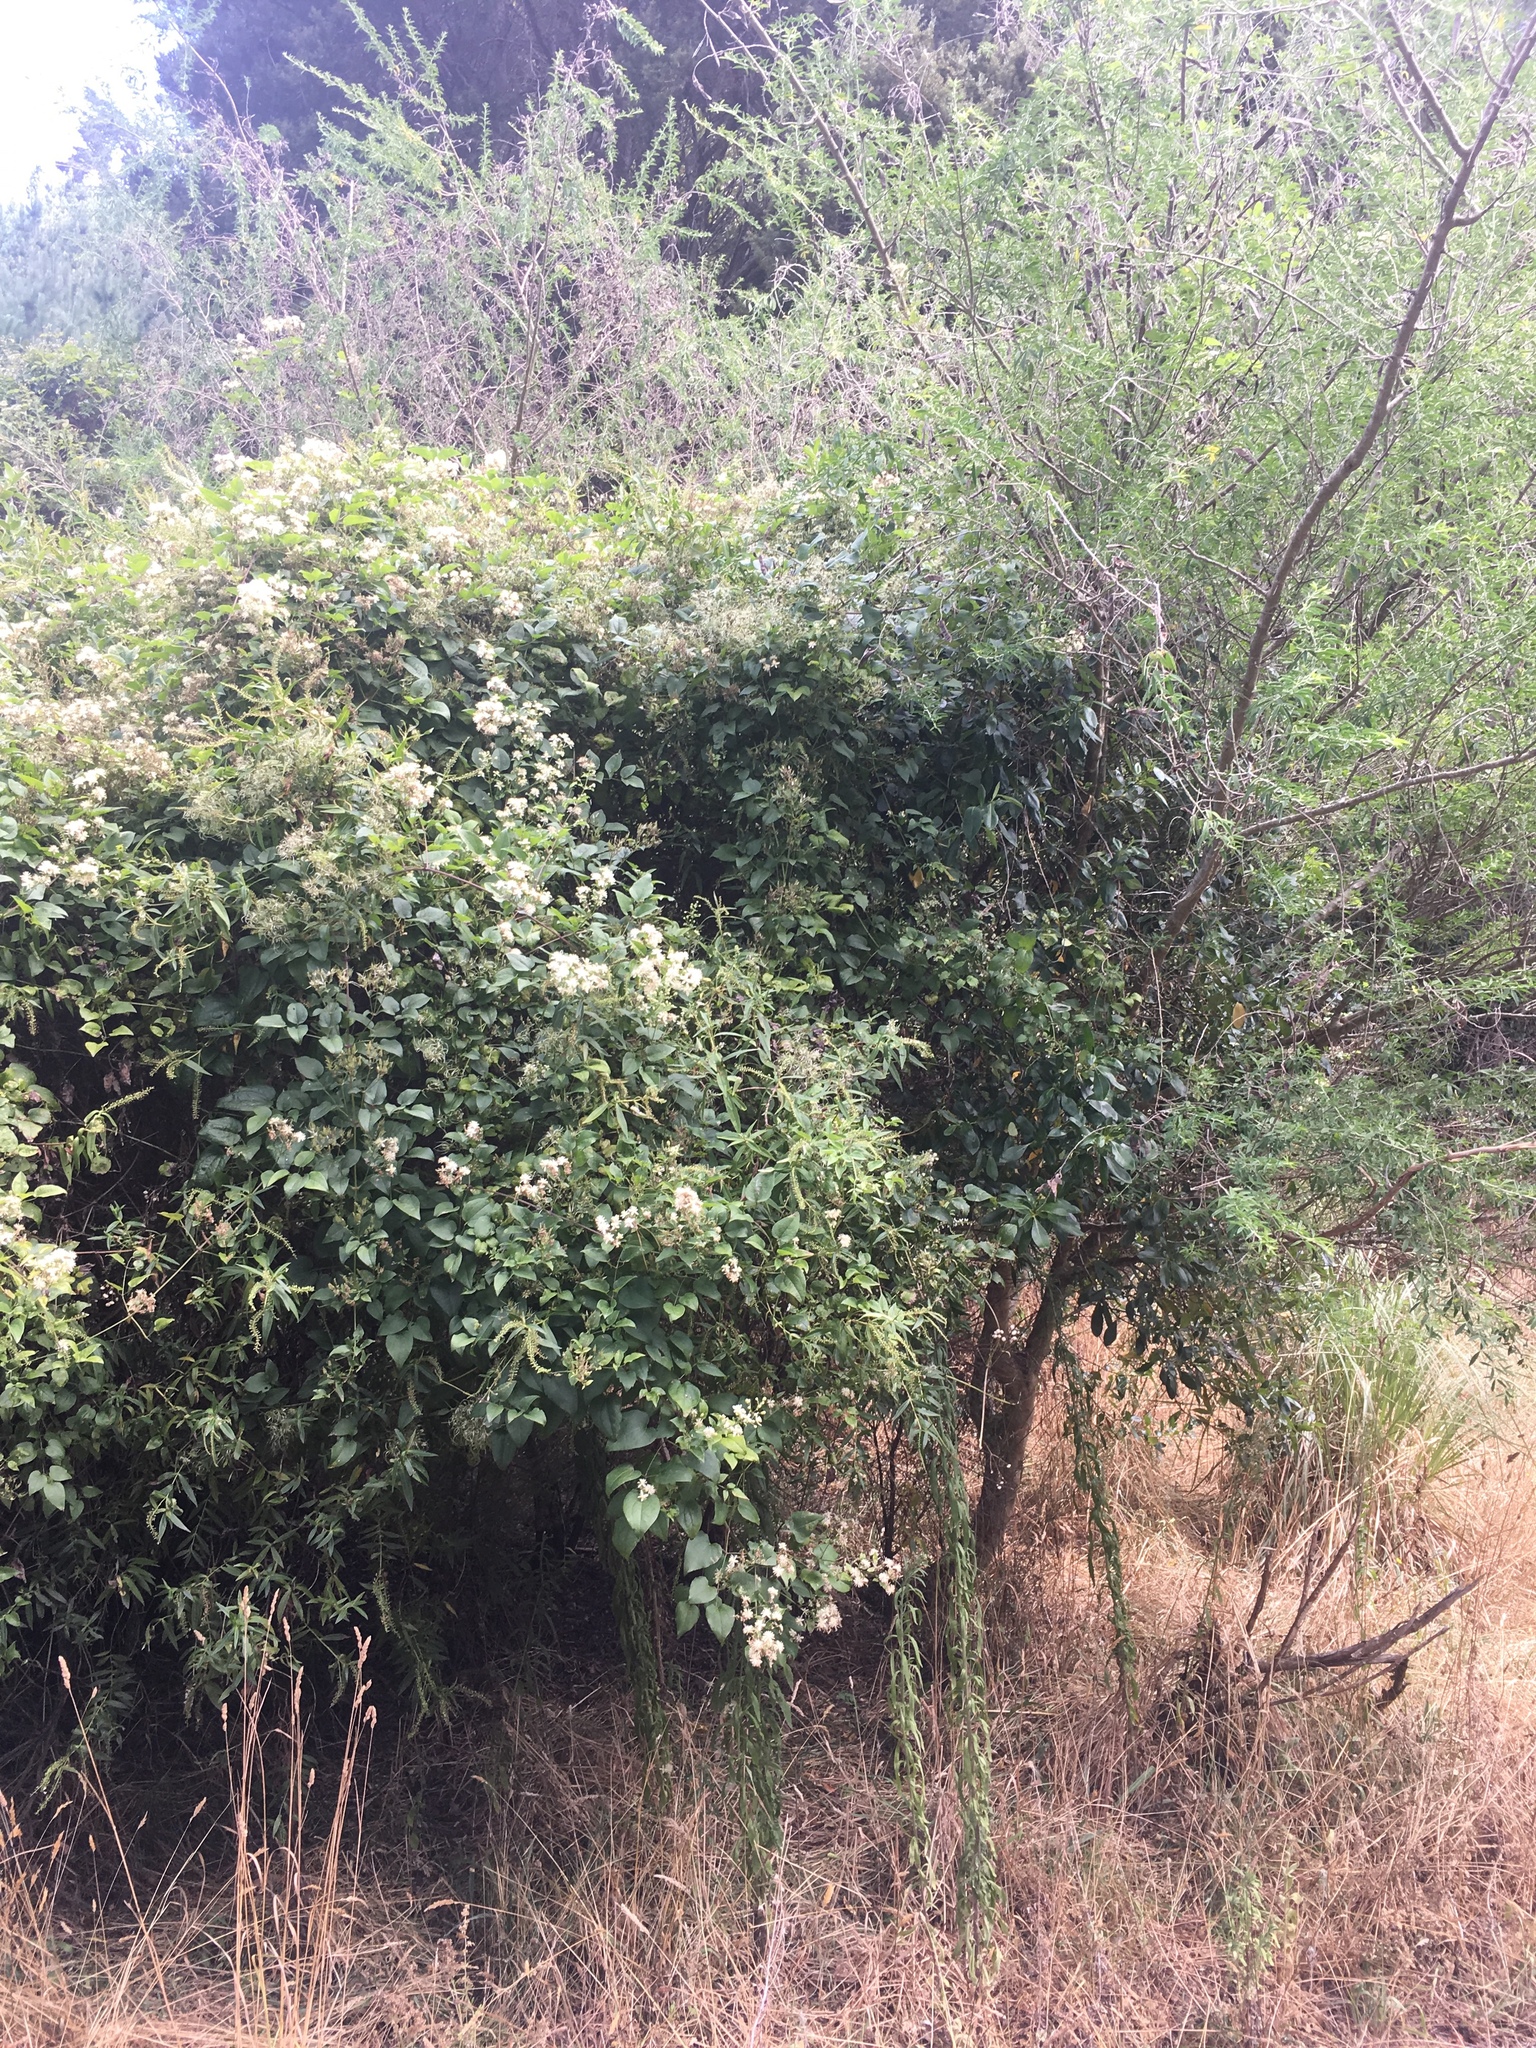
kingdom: Plantae
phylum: Tracheophyta
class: Magnoliopsida
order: Ranunculales
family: Ranunculaceae
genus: Clematis
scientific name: Clematis vitalba
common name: Evergreen clematis
